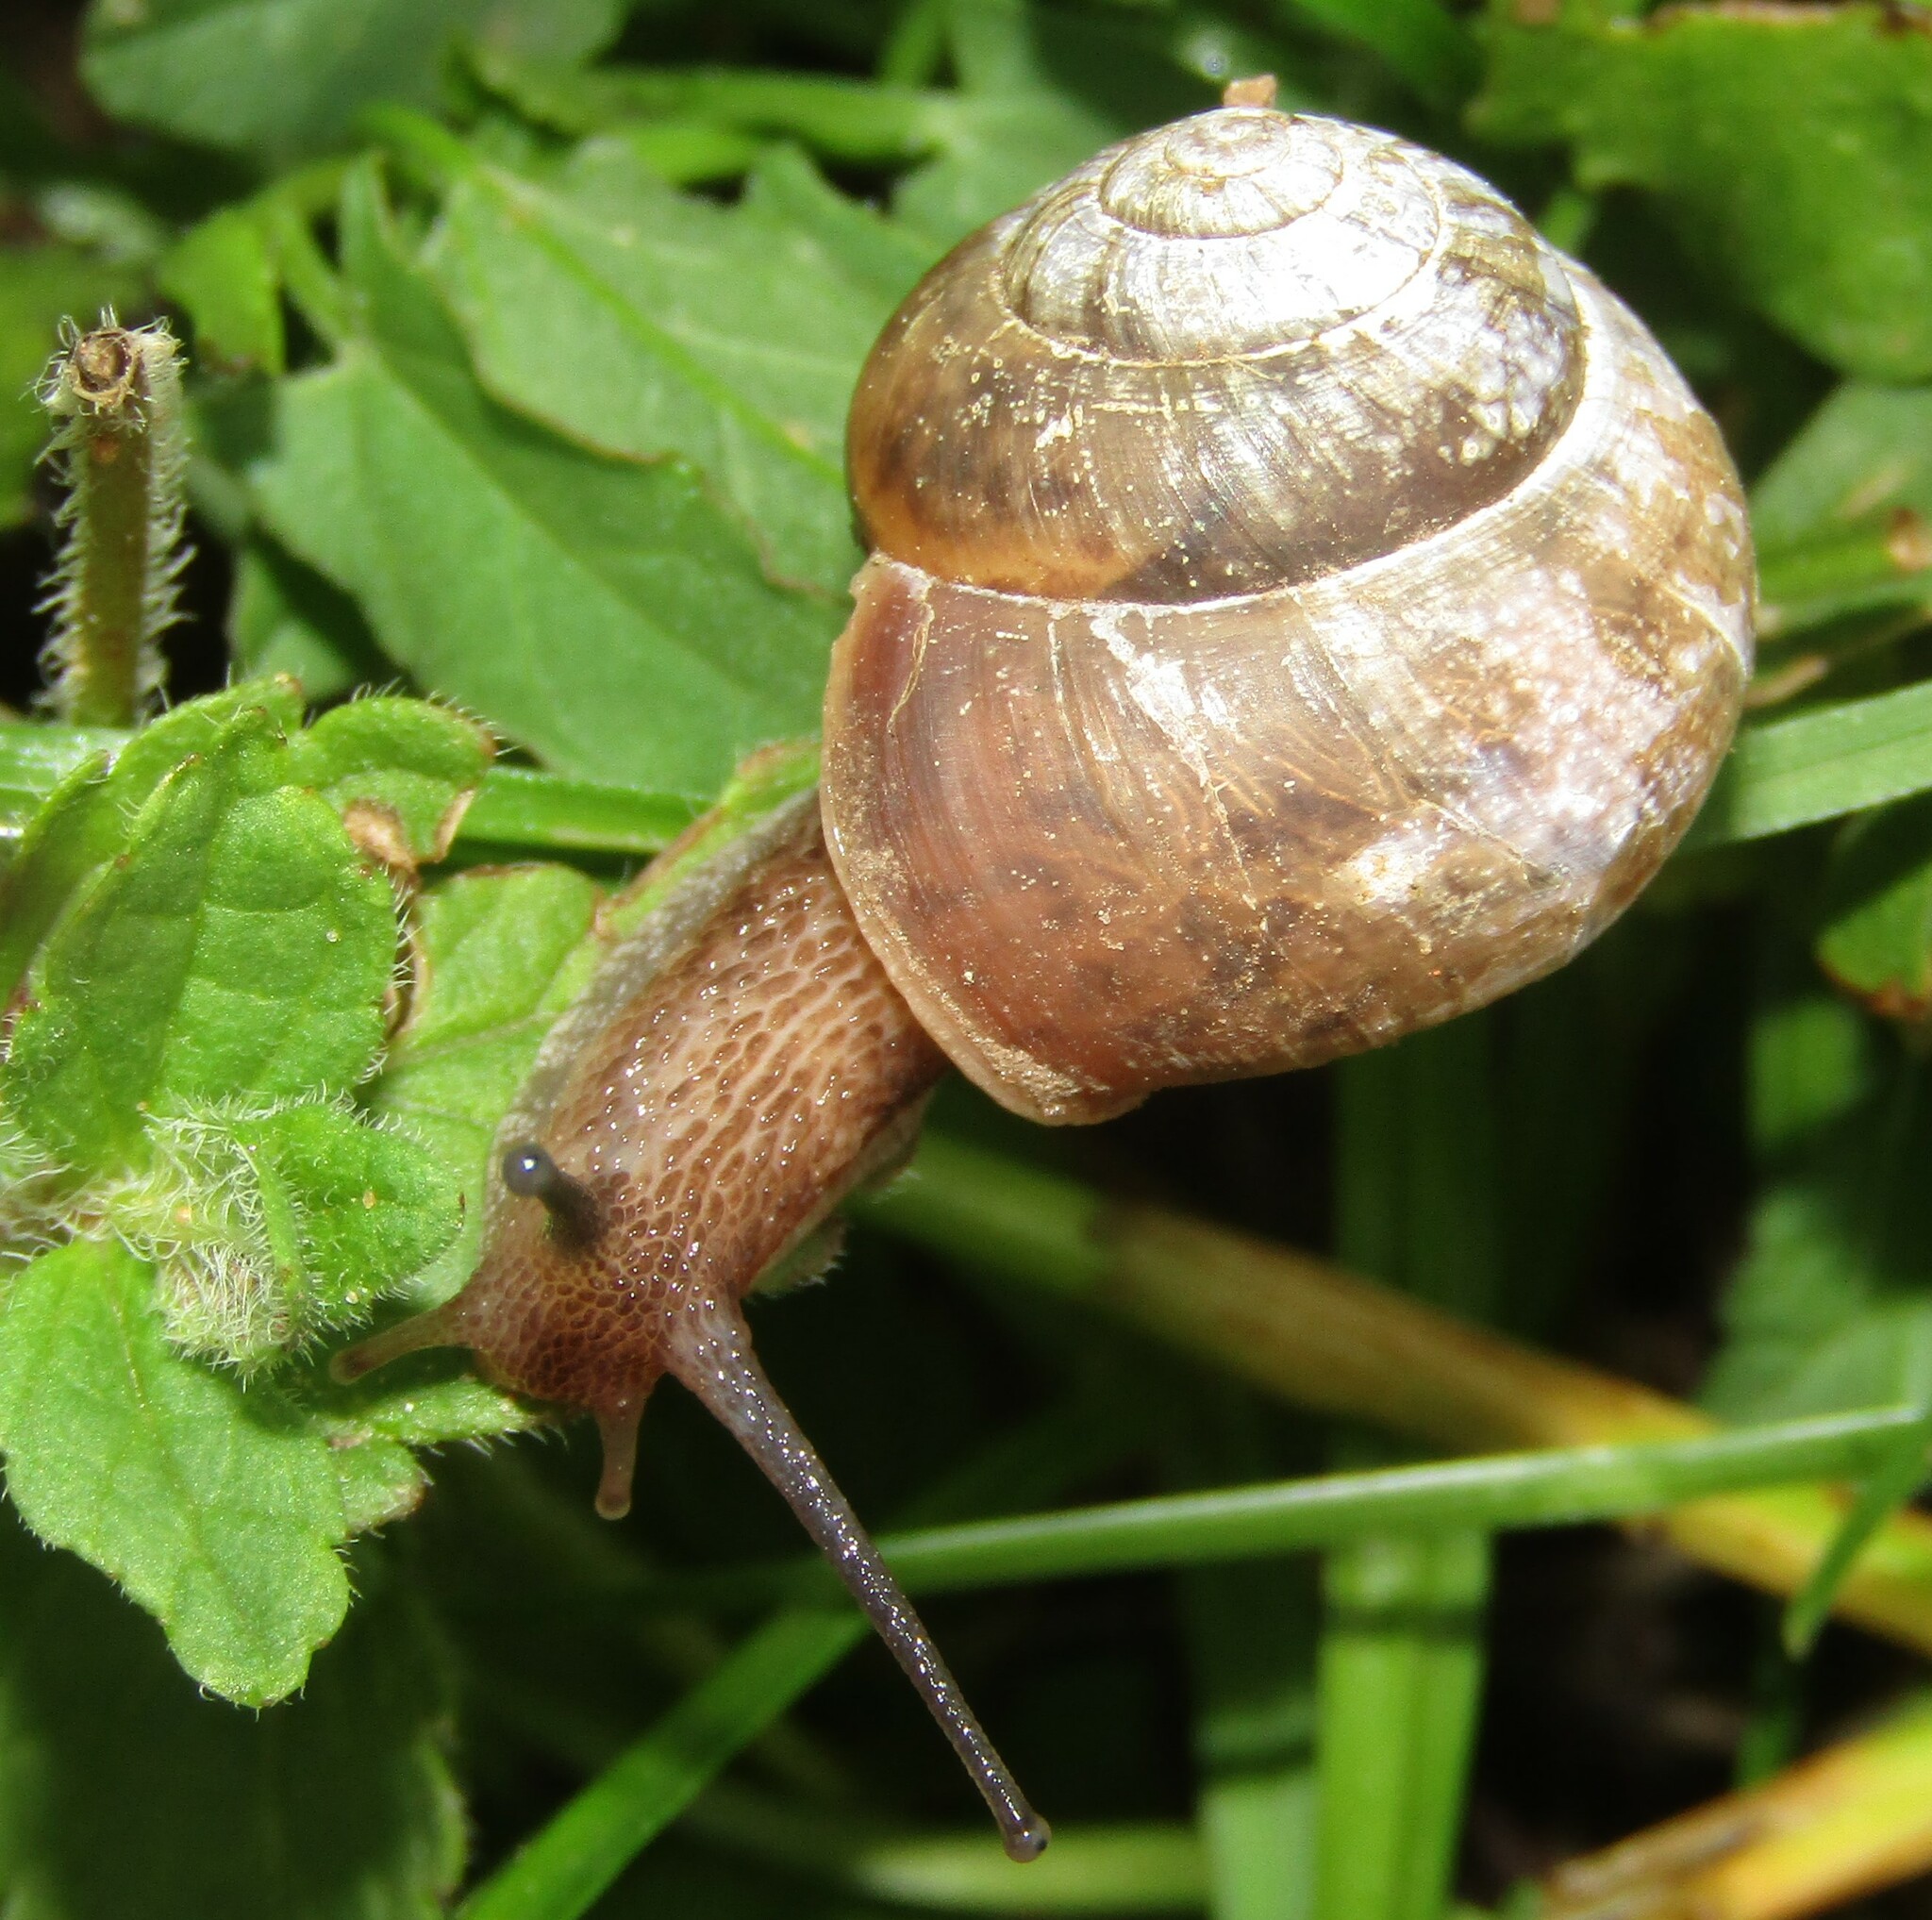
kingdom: Animalia
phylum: Mollusca
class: Gastropoda
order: Stylommatophora
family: Camaenidae
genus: Fruticicola
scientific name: Fruticicola fruticum
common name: Bush snail
